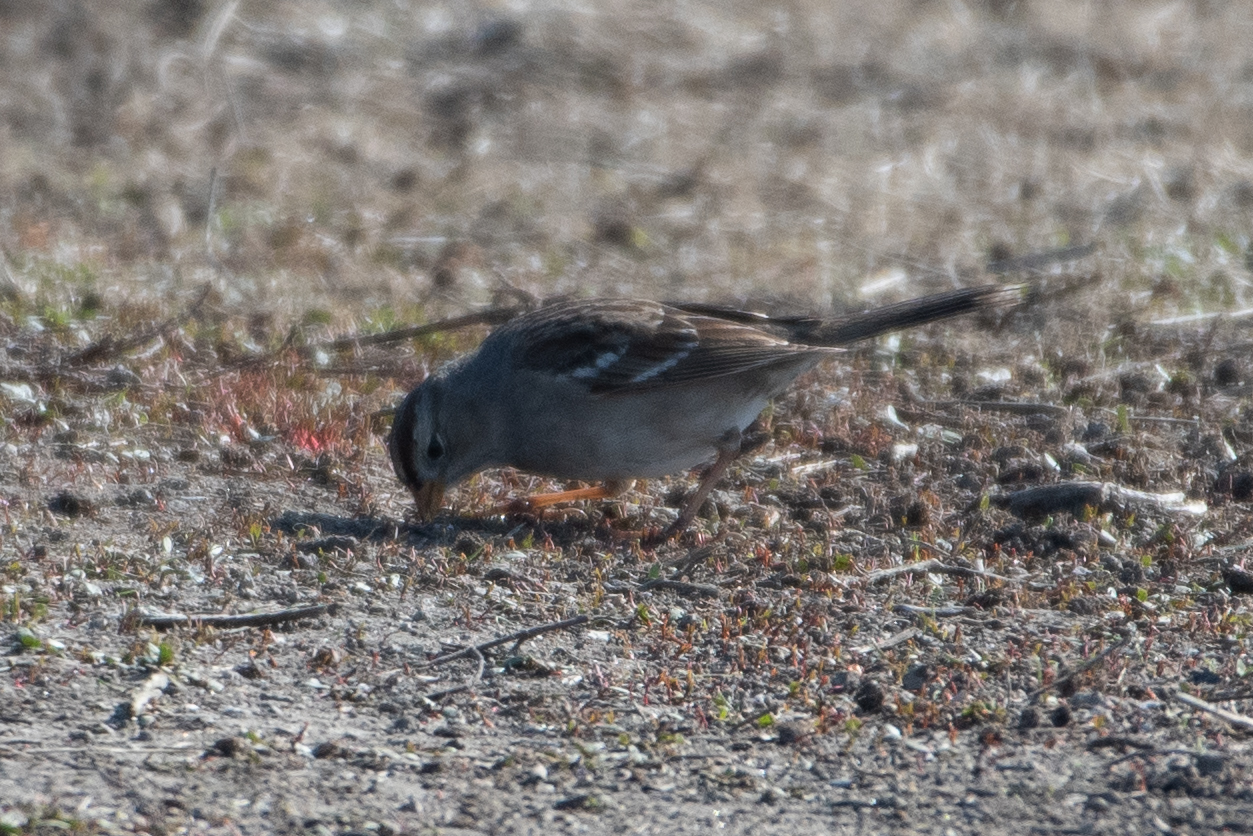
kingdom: Animalia
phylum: Chordata
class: Aves
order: Passeriformes
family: Passerellidae
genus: Zonotrichia
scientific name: Zonotrichia leucophrys
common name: White-crowned sparrow
